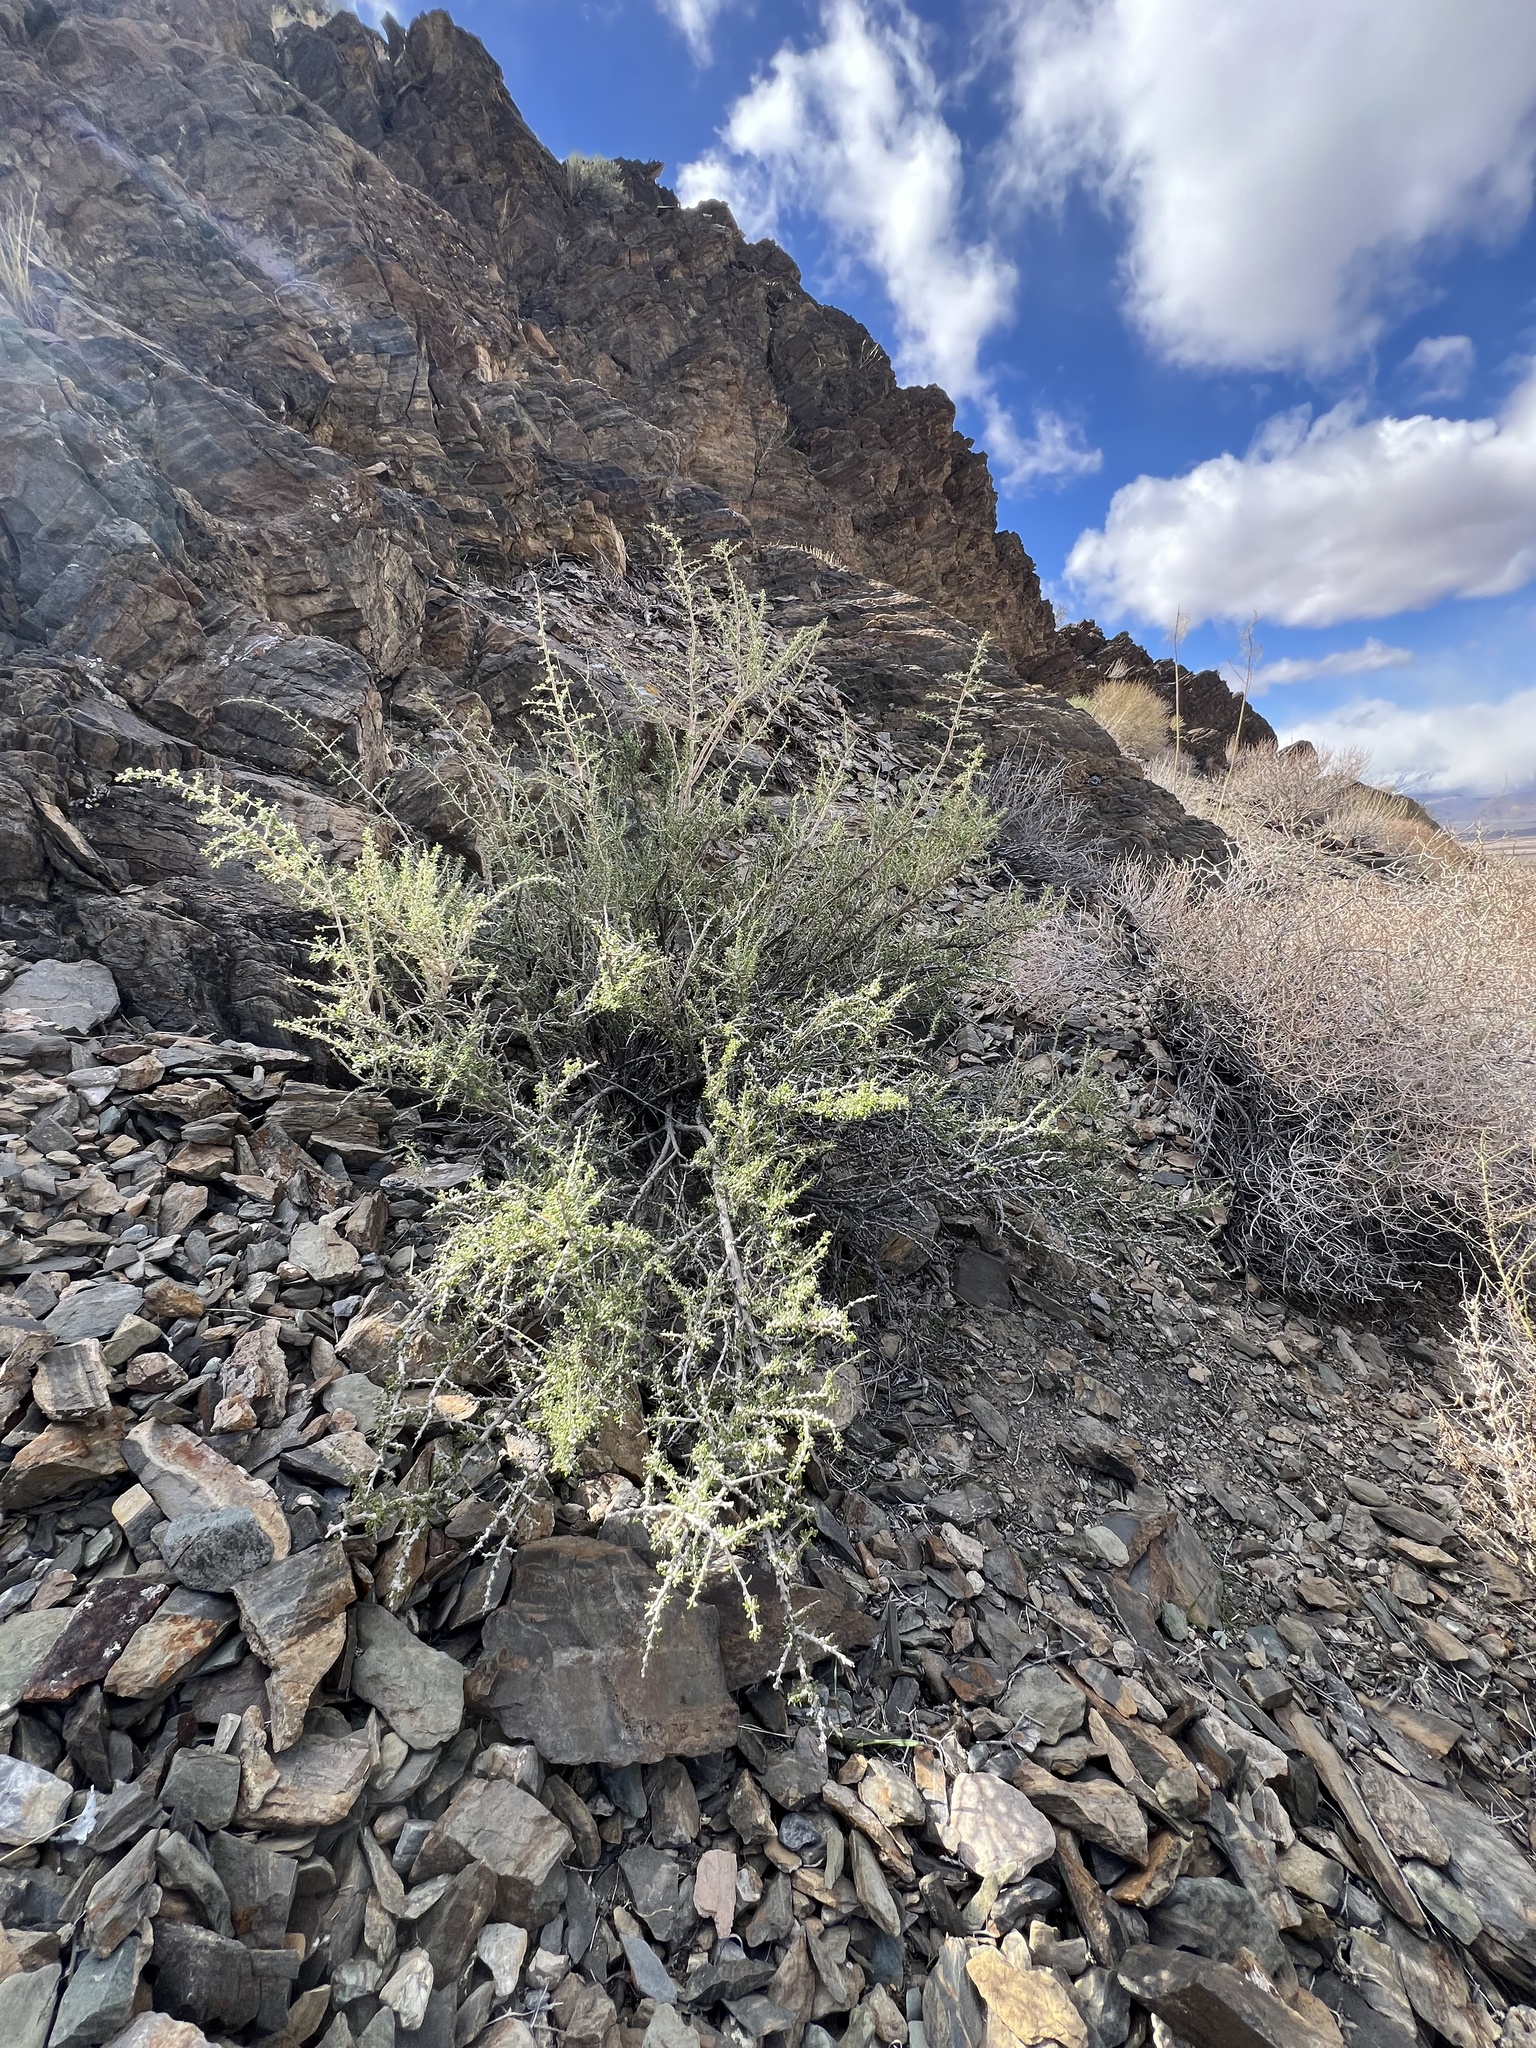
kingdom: Plantae
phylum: Tracheophyta
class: Magnoliopsida
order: Solanales
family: Solanaceae
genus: Lycium
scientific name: Lycium andersonii
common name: Water-jacket
